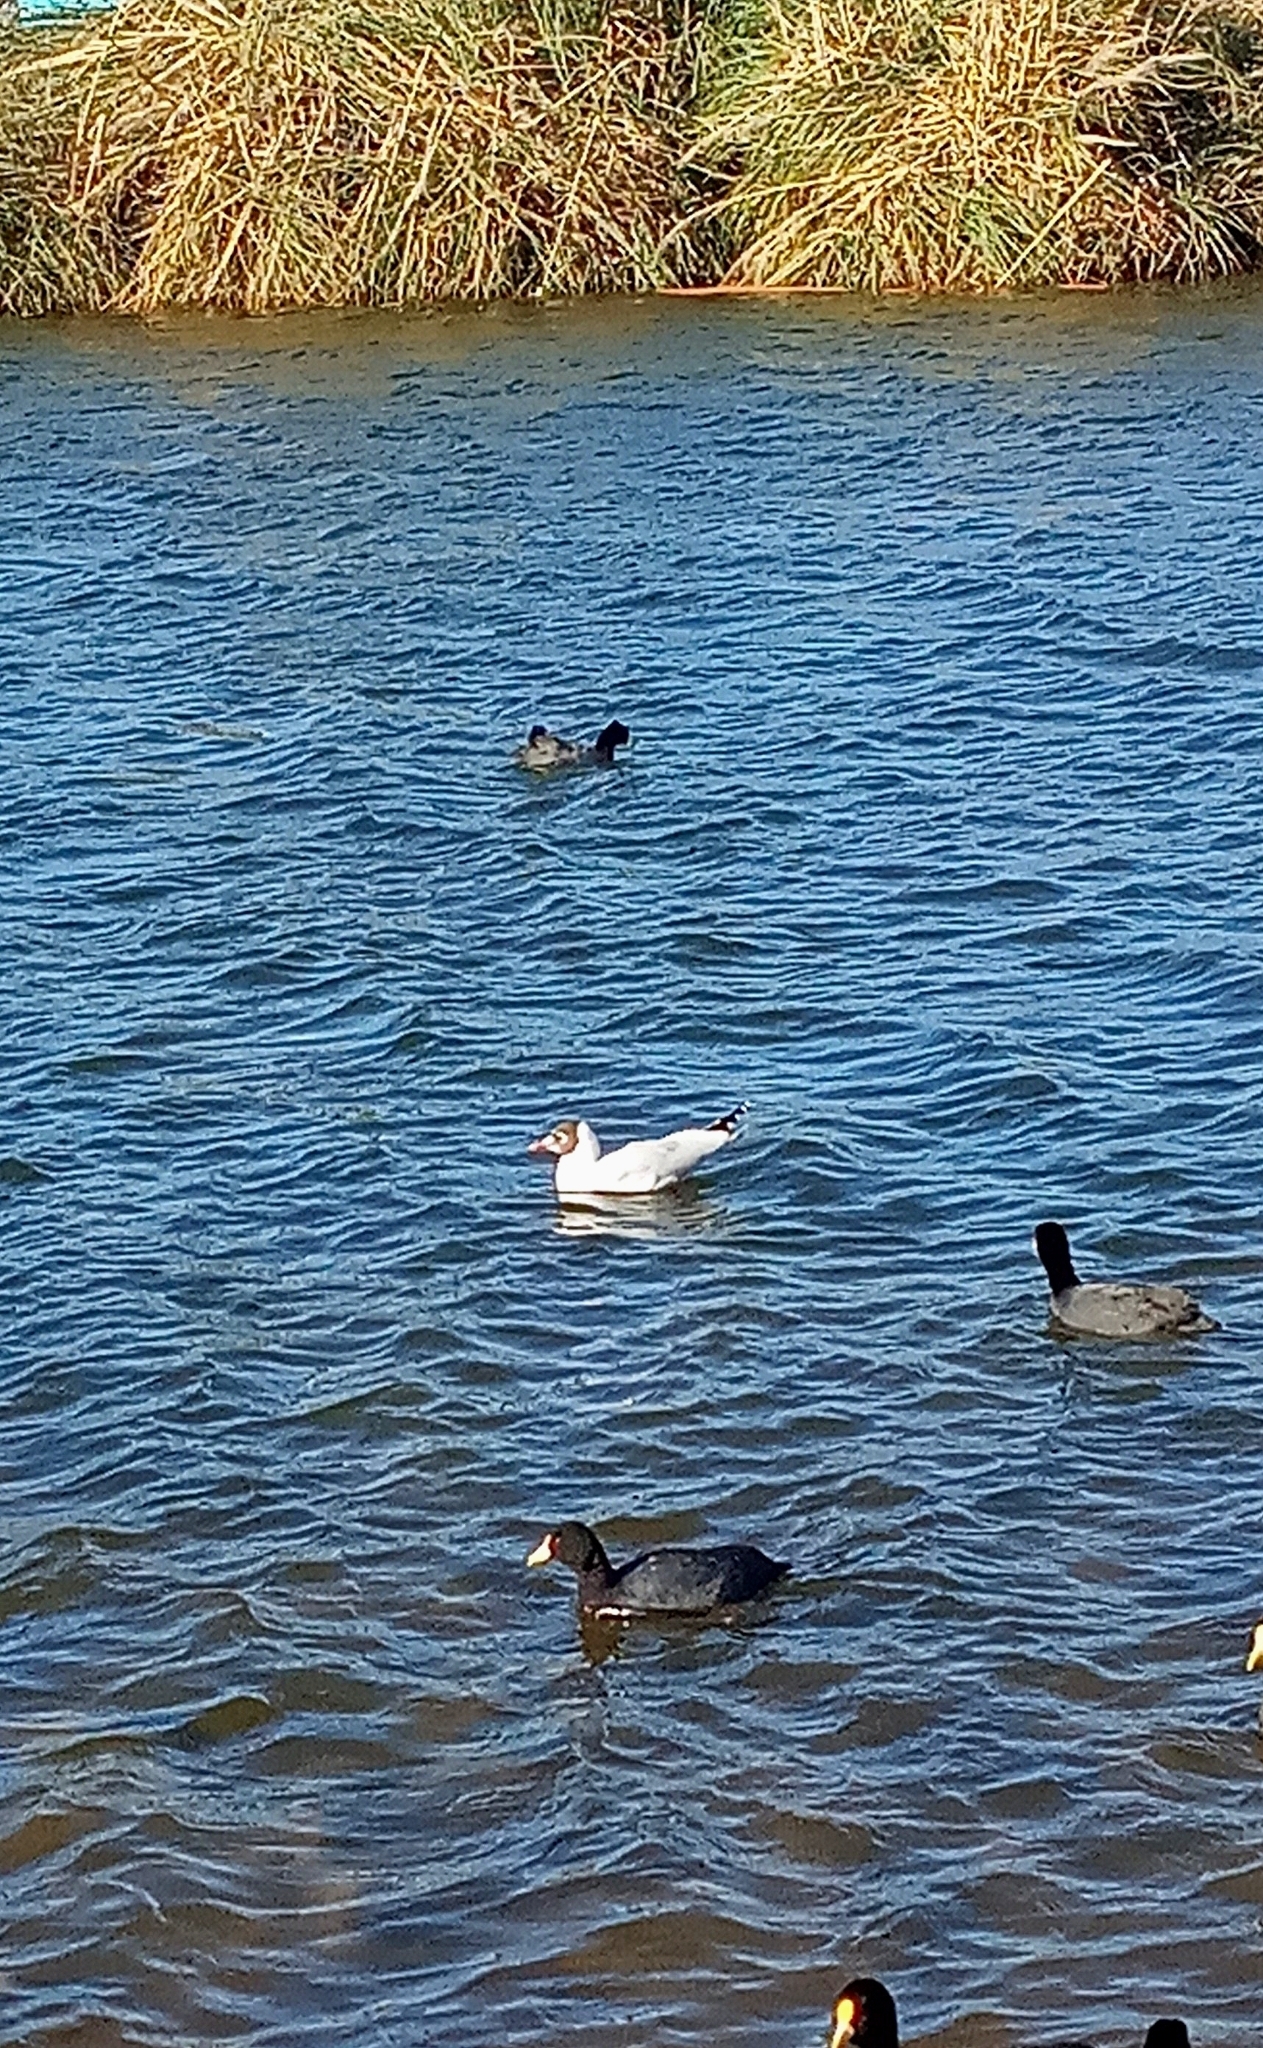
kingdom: Animalia
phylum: Chordata
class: Aves
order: Charadriiformes
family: Laridae
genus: Chroicocephalus
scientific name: Chroicocephalus maculipennis
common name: Brown-hooded gull
